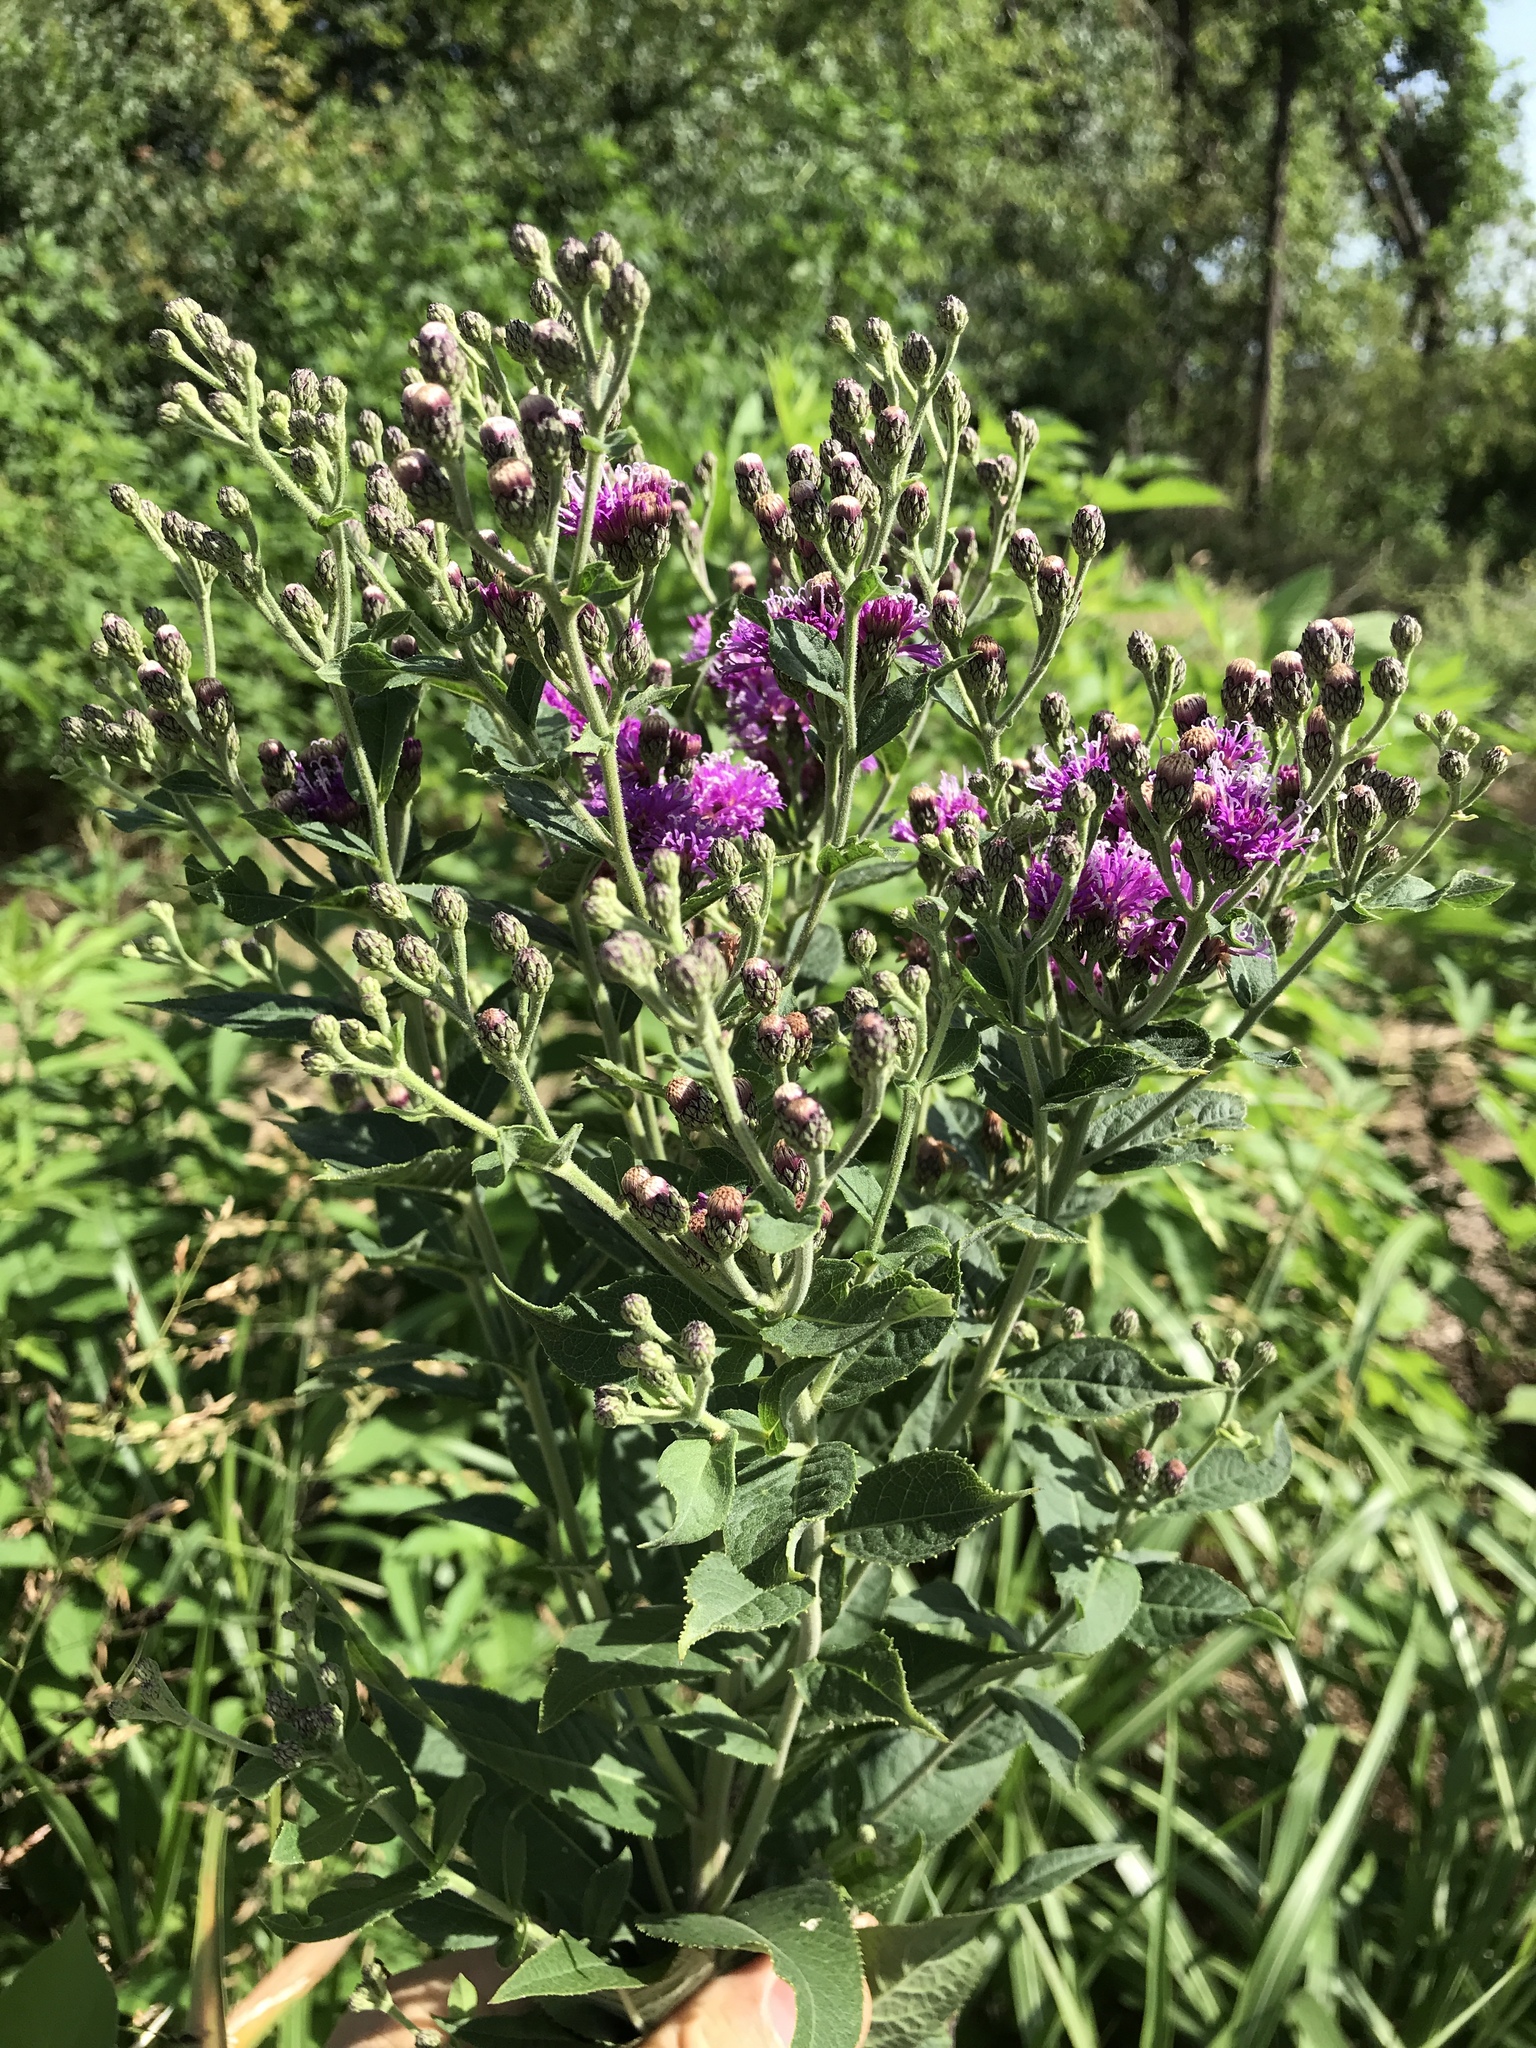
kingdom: Plantae
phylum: Tracheophyta
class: Magnoliopsida
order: Asterales
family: Asteraceae
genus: Vernonia
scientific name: Vernonia baldwinii
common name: Western ironweed
